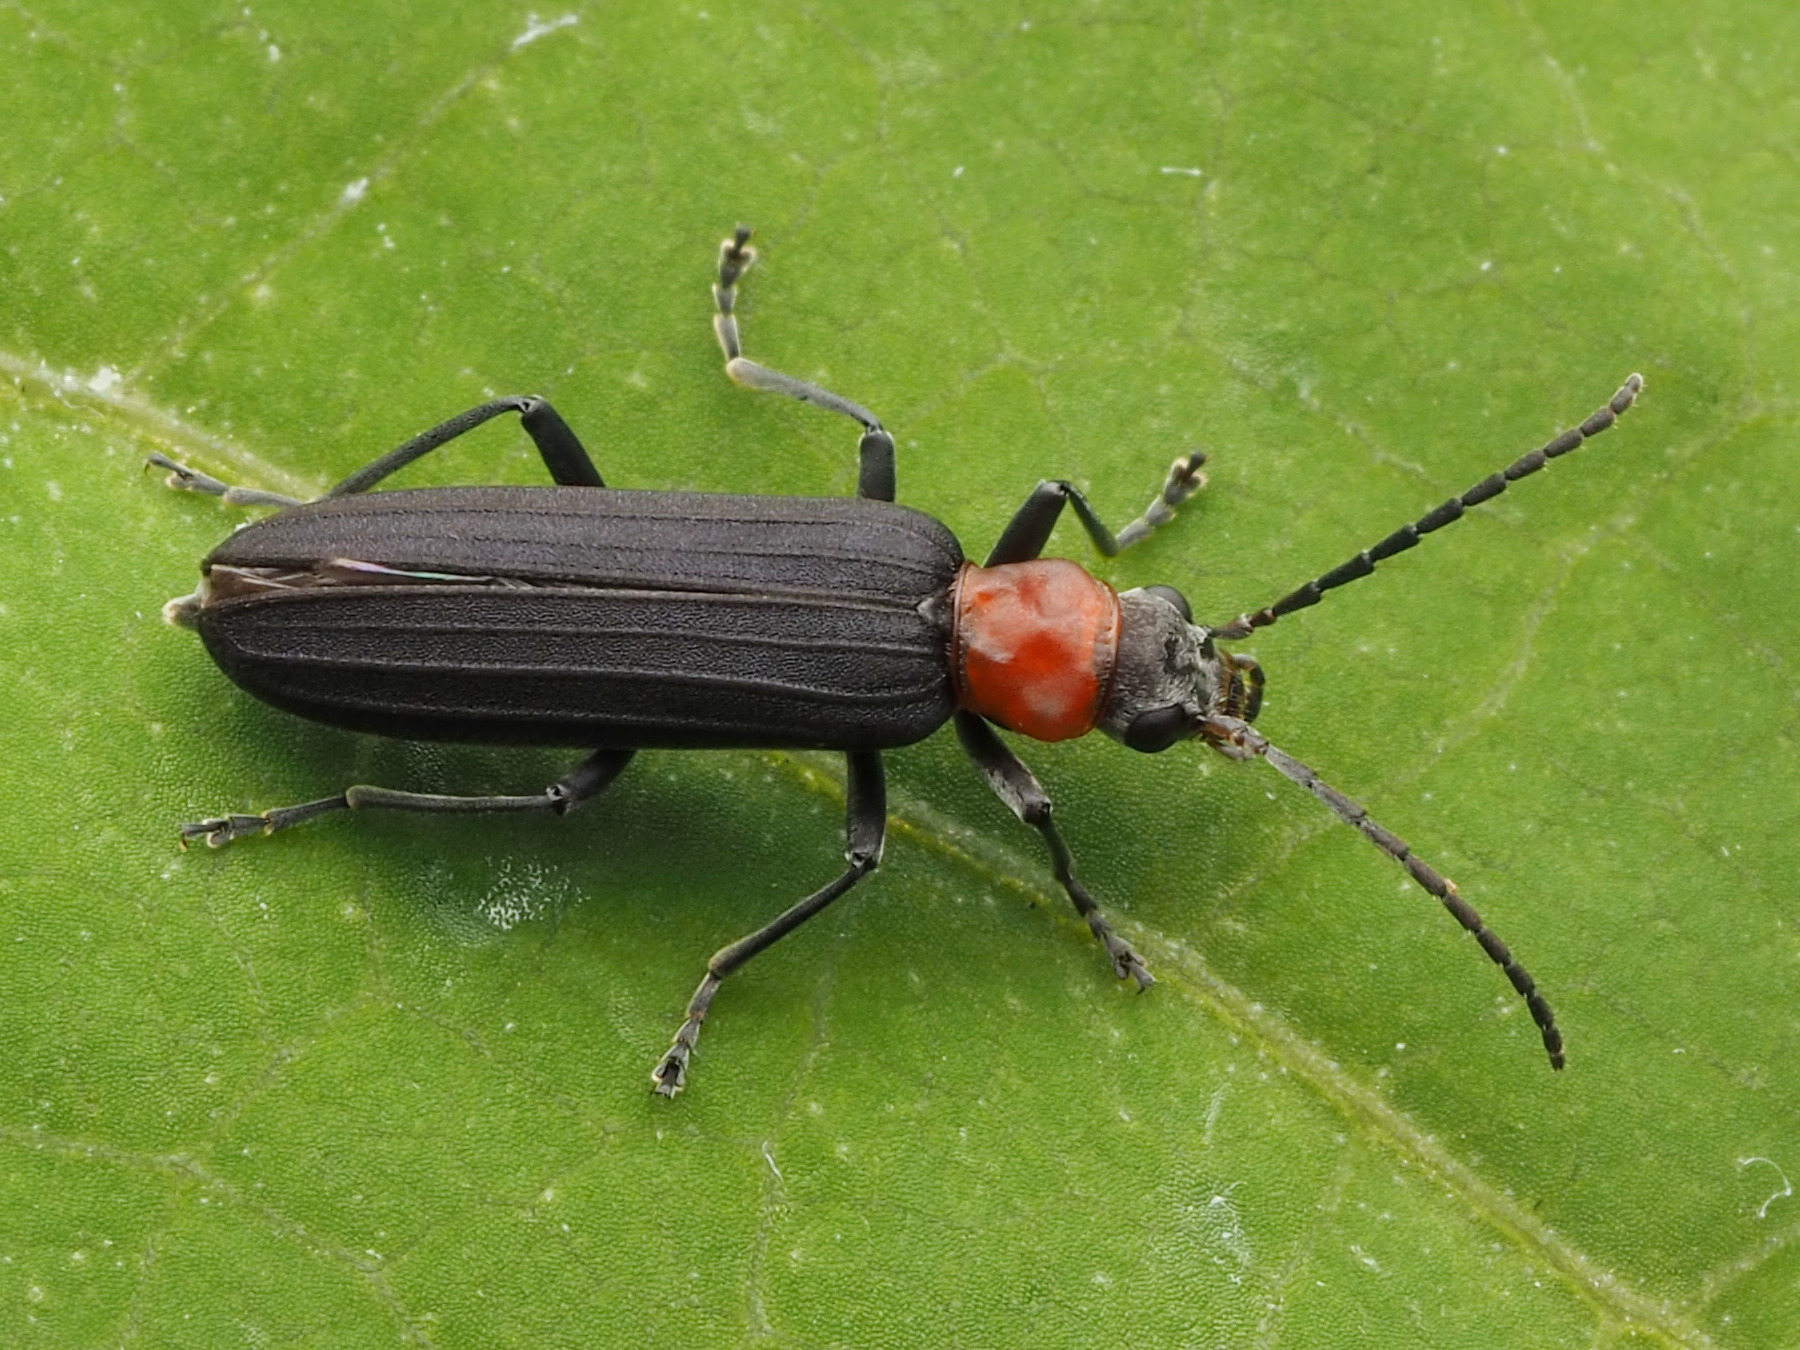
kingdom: Animalia
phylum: Arthropoda
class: Insecta
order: Coleoptera
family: Oedemeridae
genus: Ischnomera
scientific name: Ischnomera
